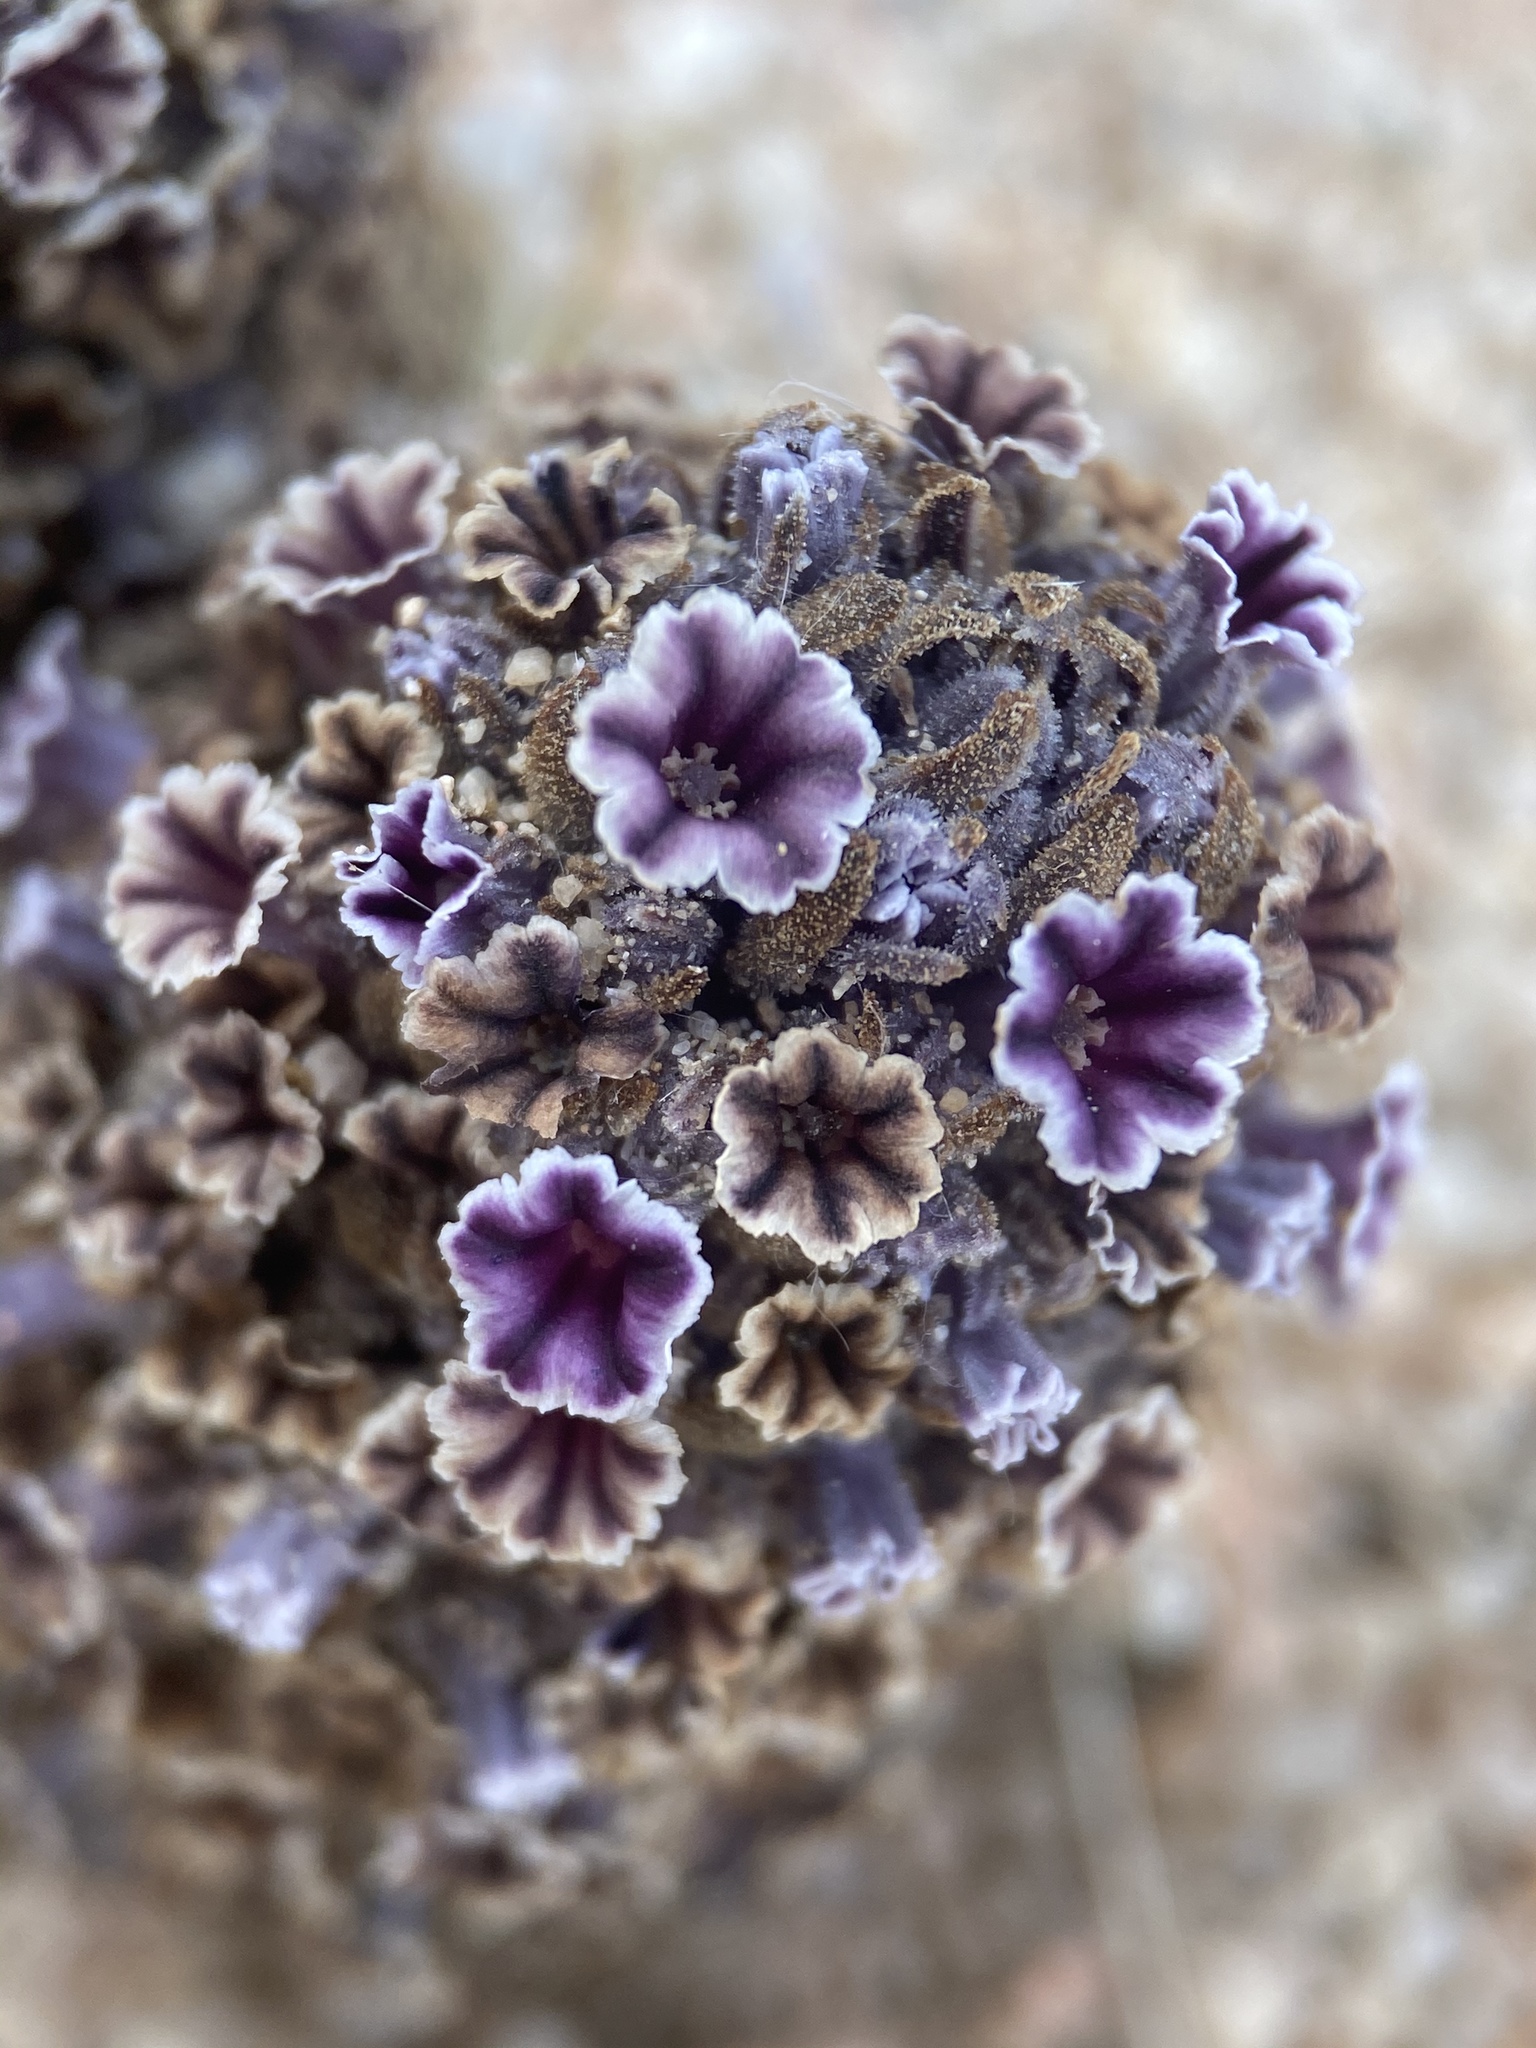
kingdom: Plantae
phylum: Tracheophyta
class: Magnoliopsida
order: Boraginales
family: Lennoaceae
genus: Pholisma
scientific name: Pholisma arenarium
